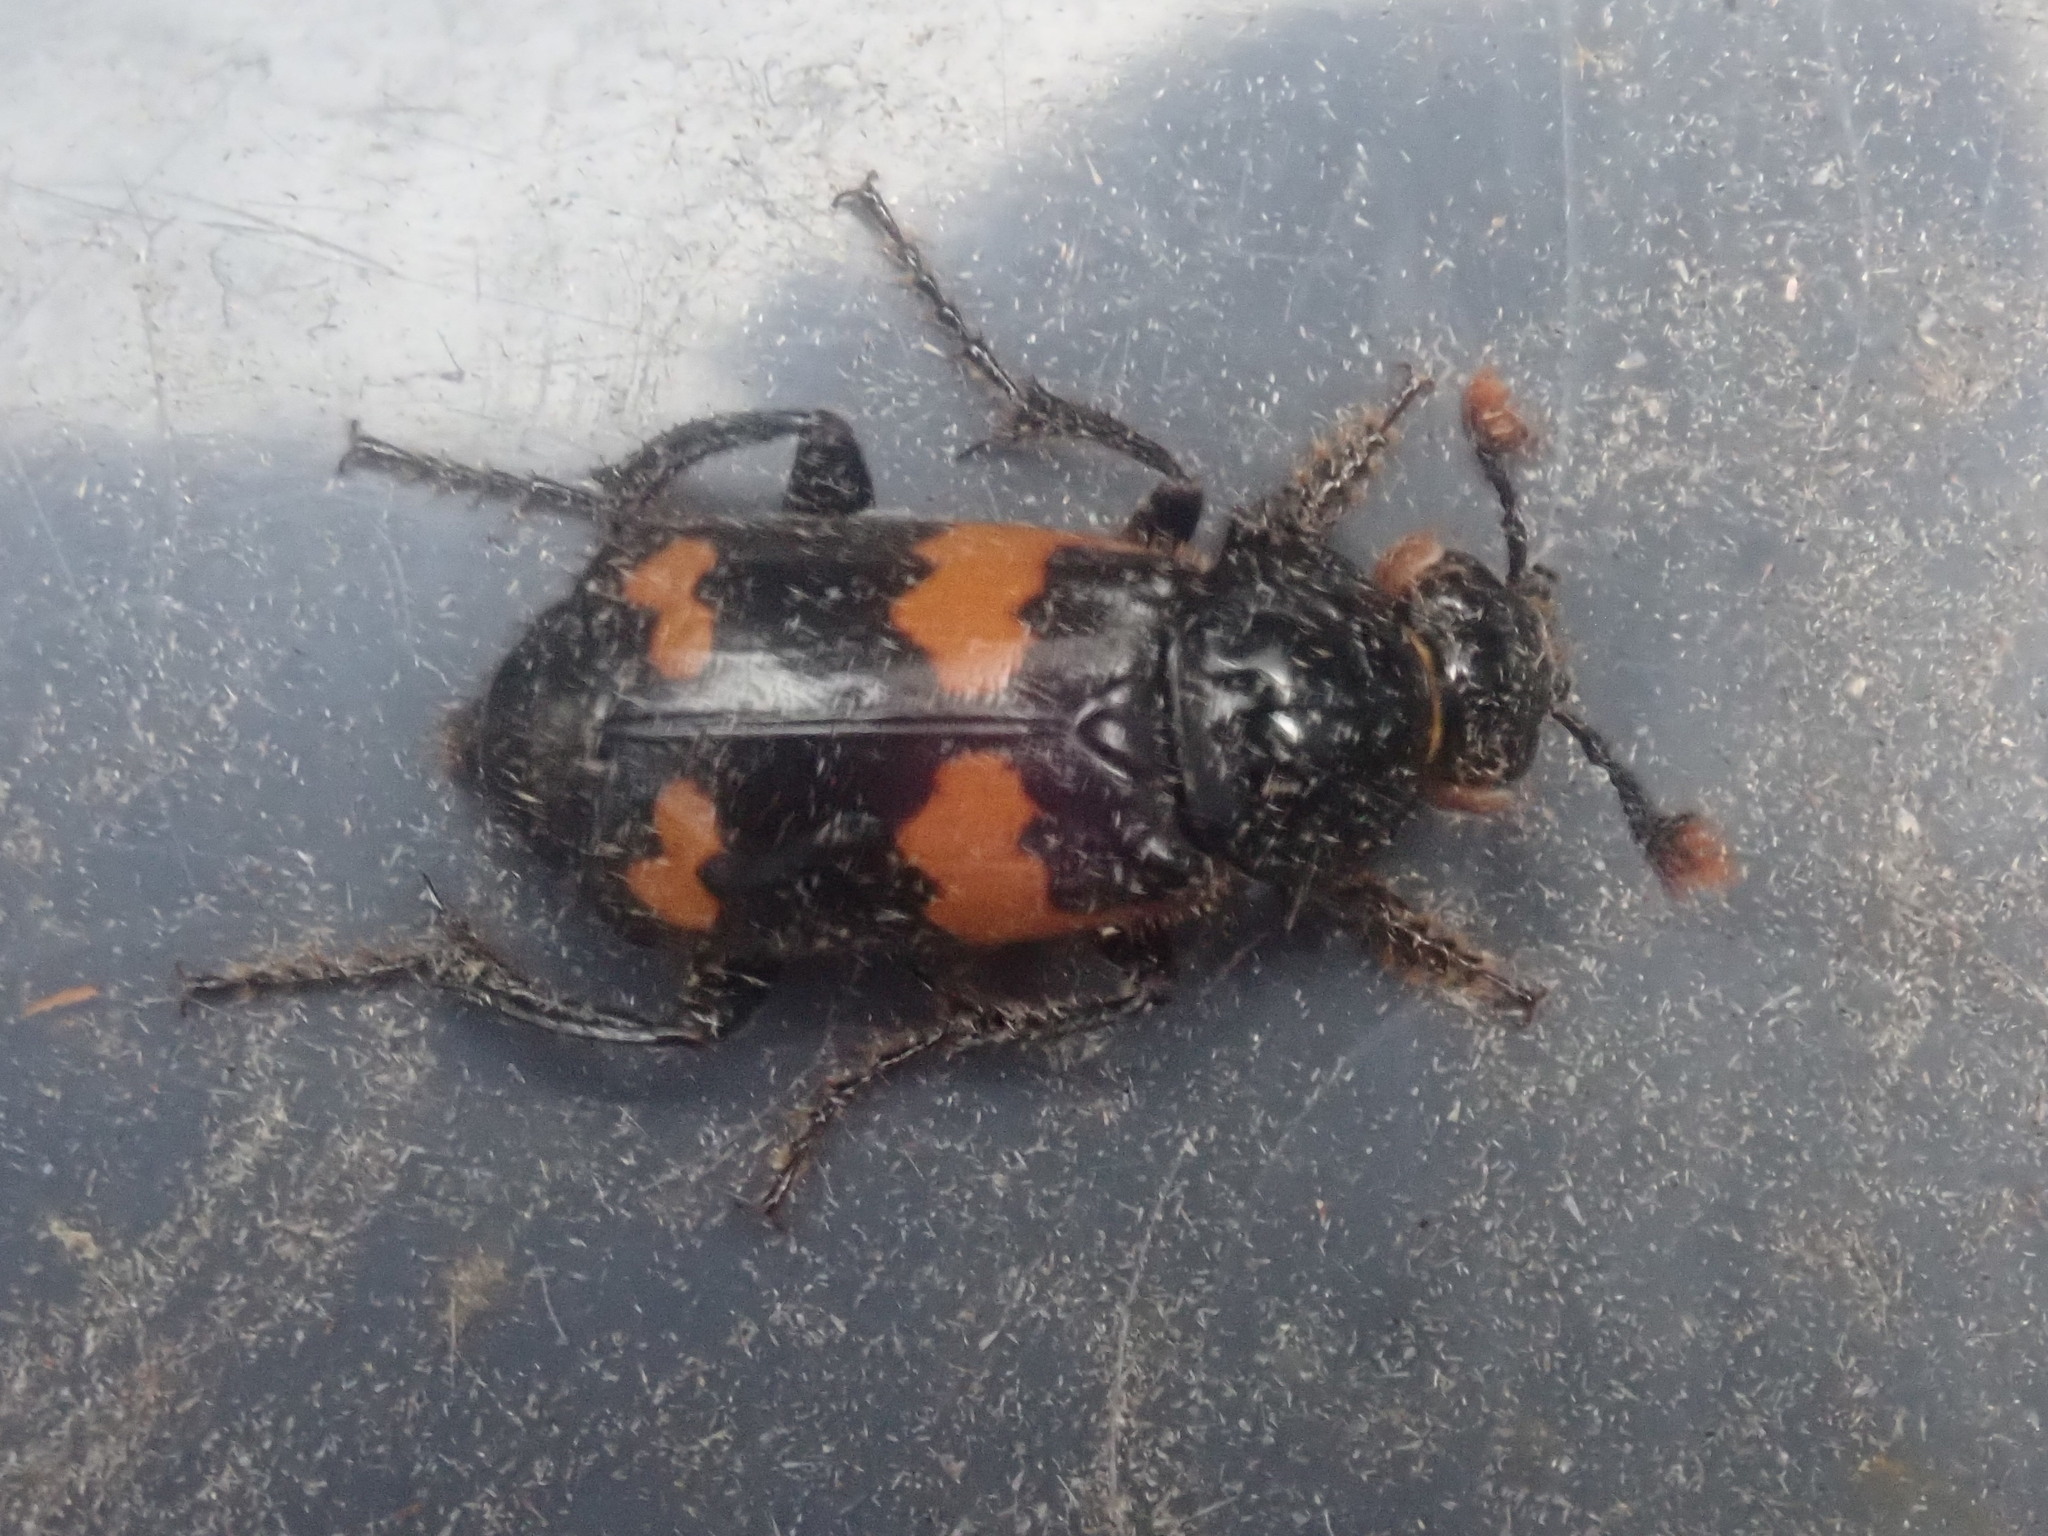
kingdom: Animalia
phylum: Arthropoda
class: Insecta
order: Coleoptera
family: Staphylinidae
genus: Nicrophorus
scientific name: Nicrophorus sayi
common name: Say's burying beetle
